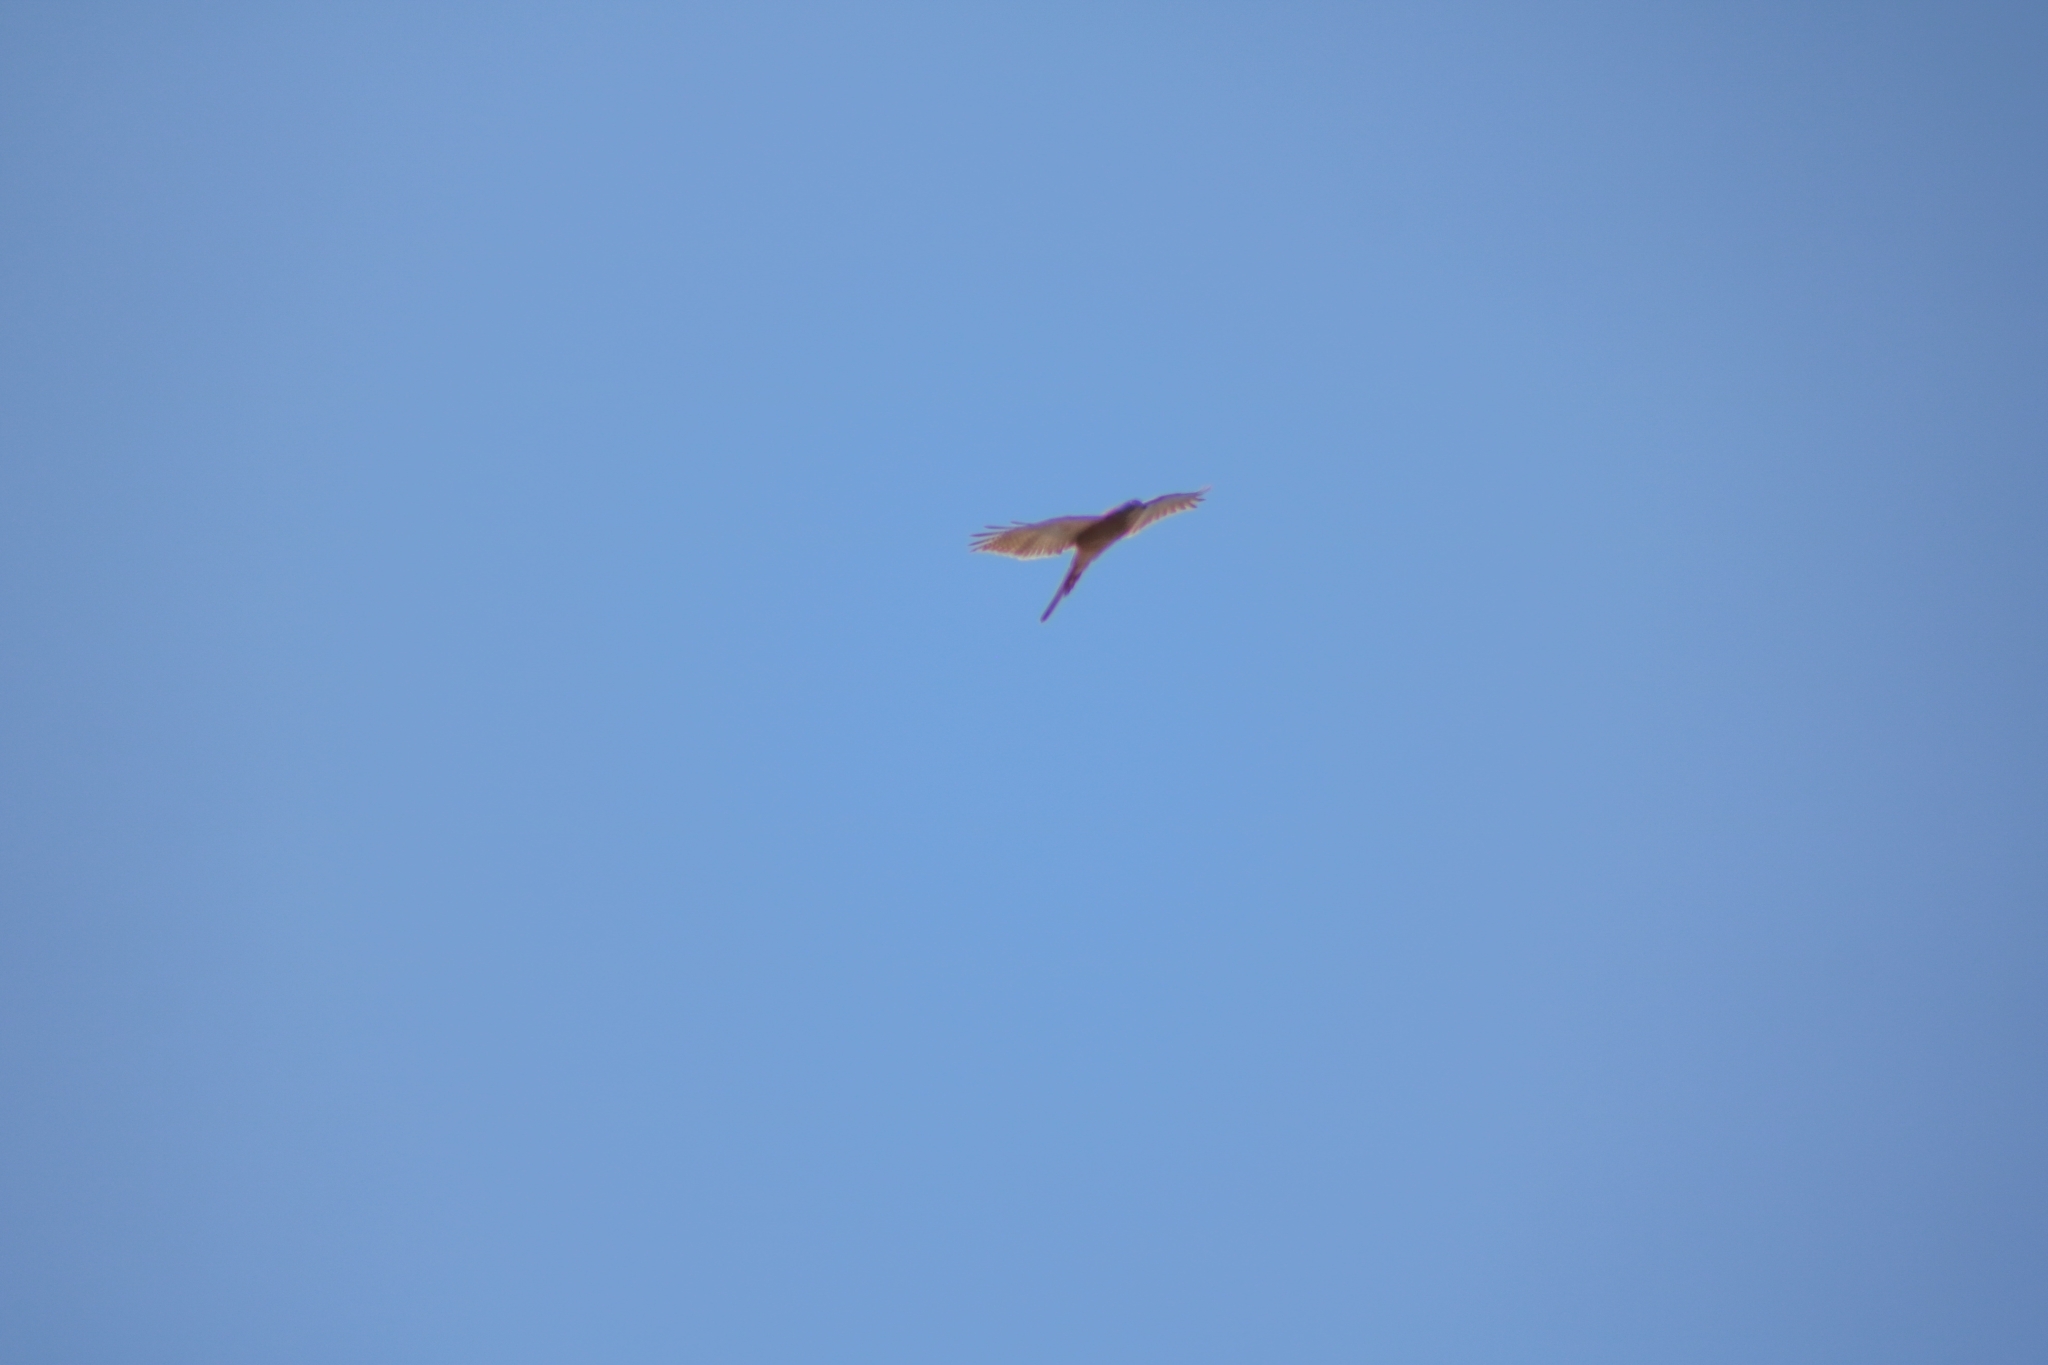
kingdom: Animalia
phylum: Chordata
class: Aves
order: Accipitriformes
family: Accipitridae
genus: Accipiter
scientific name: Accipiter fasciatus
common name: Brown goshawk
